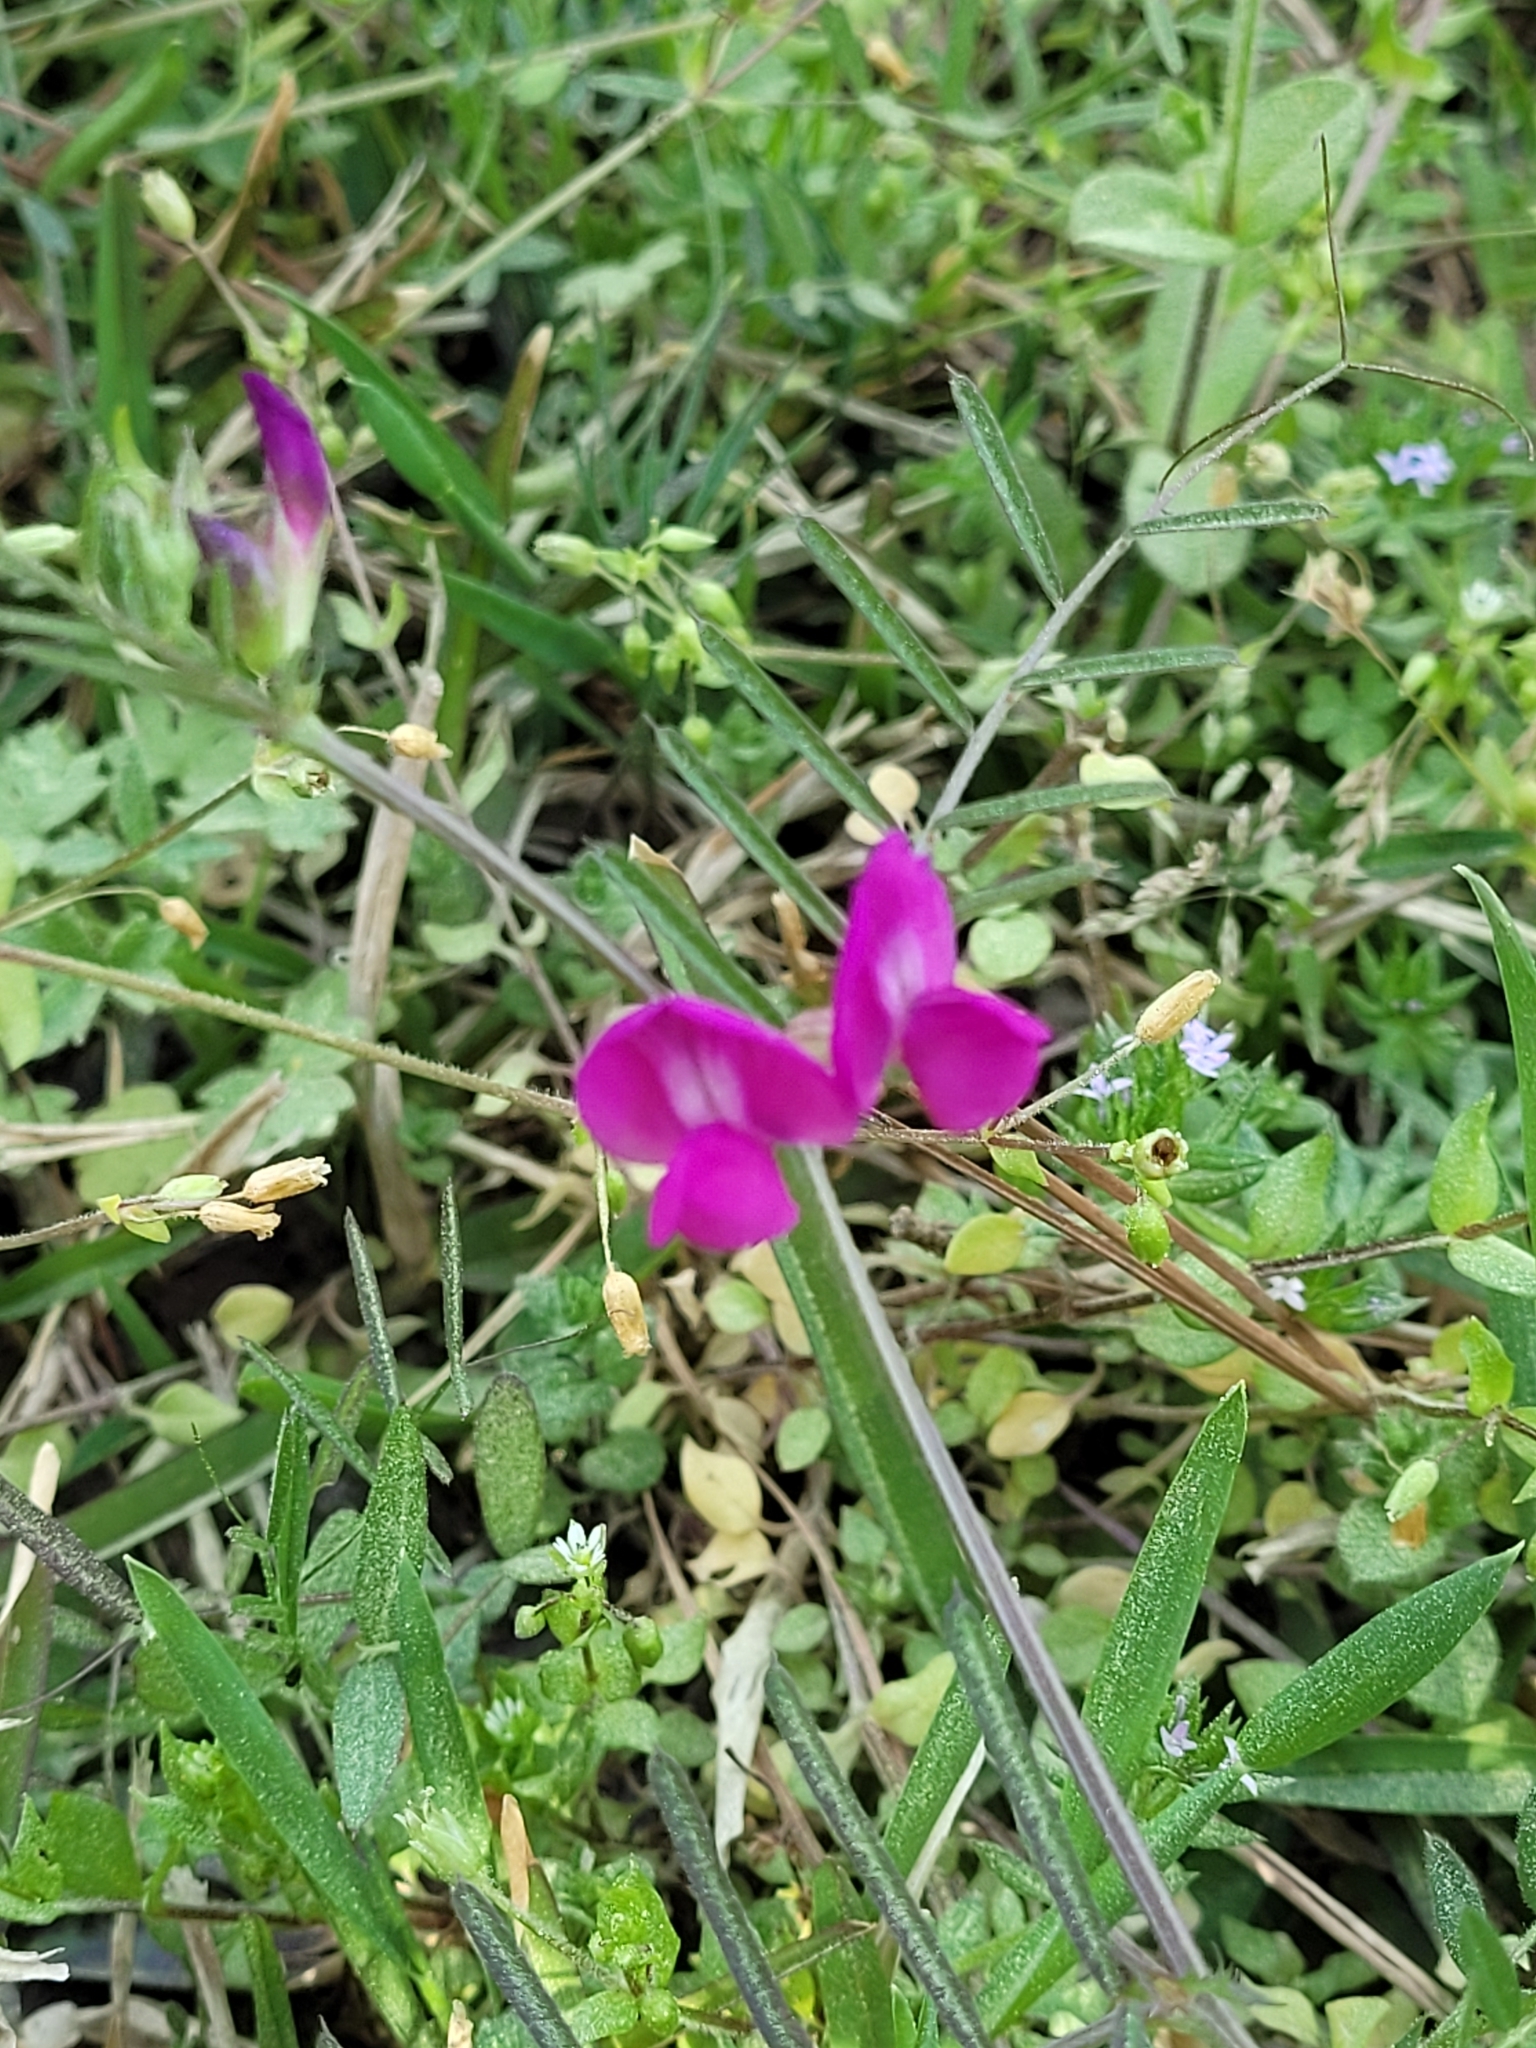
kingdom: Plantae
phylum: Tracheophyta
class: Magnoliopsida
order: Fabales
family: Fabaceae
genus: Vicia
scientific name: Vicia sativa
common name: Garden vetch
